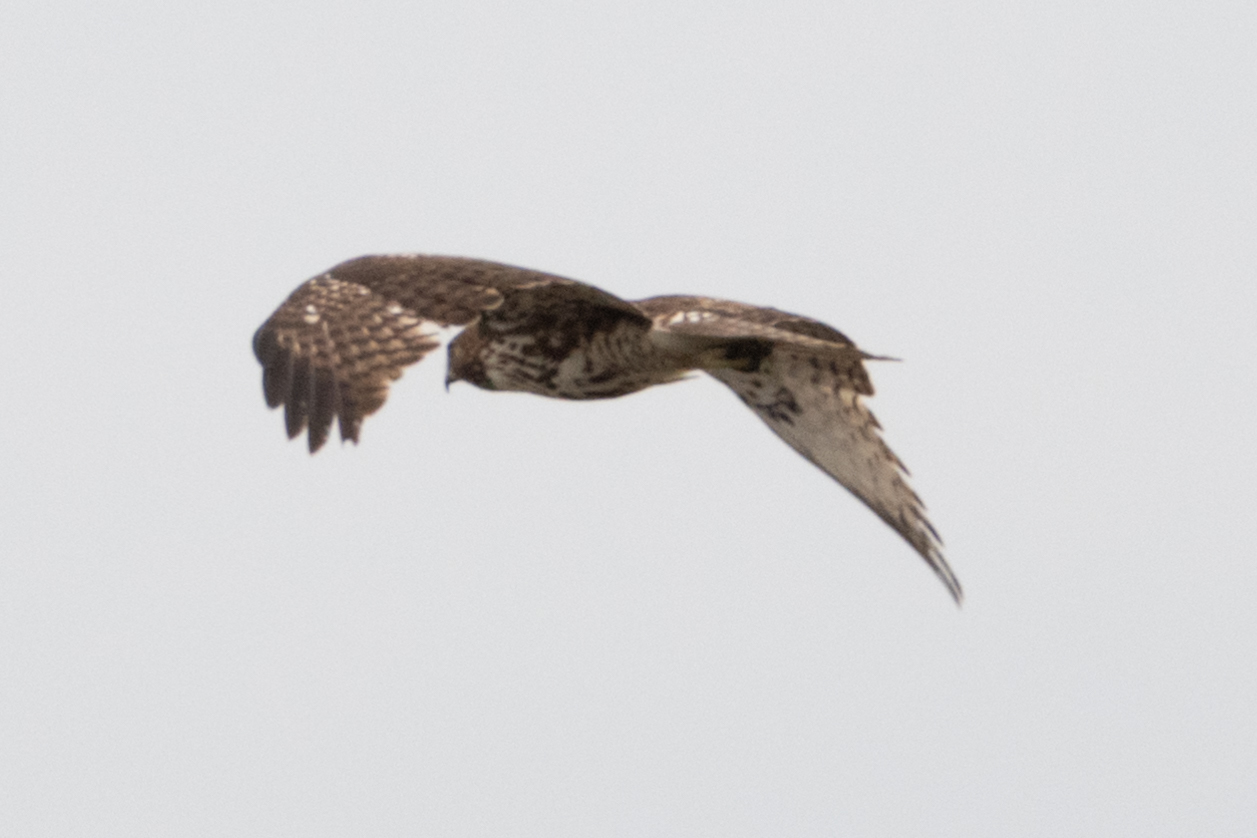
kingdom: Animalia
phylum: Chordata
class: Aves
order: Accipitriformes
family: Accipitridae
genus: Buteo
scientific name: Buteo jamaicensis
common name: Red-tailed hawk
